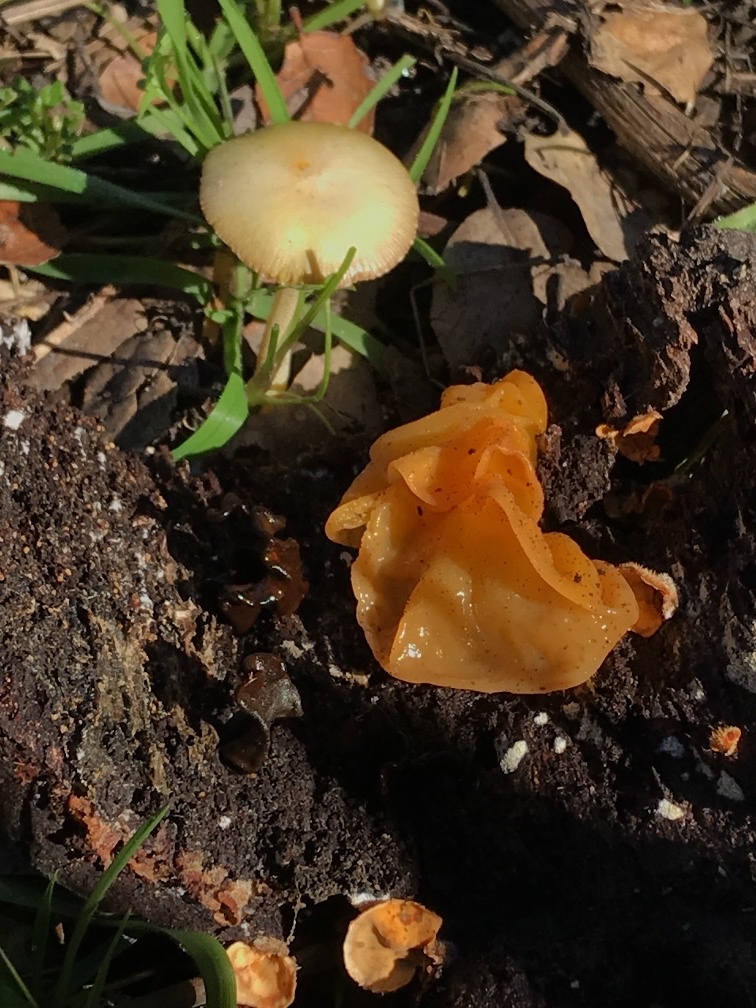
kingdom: Fungi
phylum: Basidiomycota
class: Tremellomycetes
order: Tremellales
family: Naemateliaceae
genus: Naematelia
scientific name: Naematelia aurantia
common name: Golden ear
